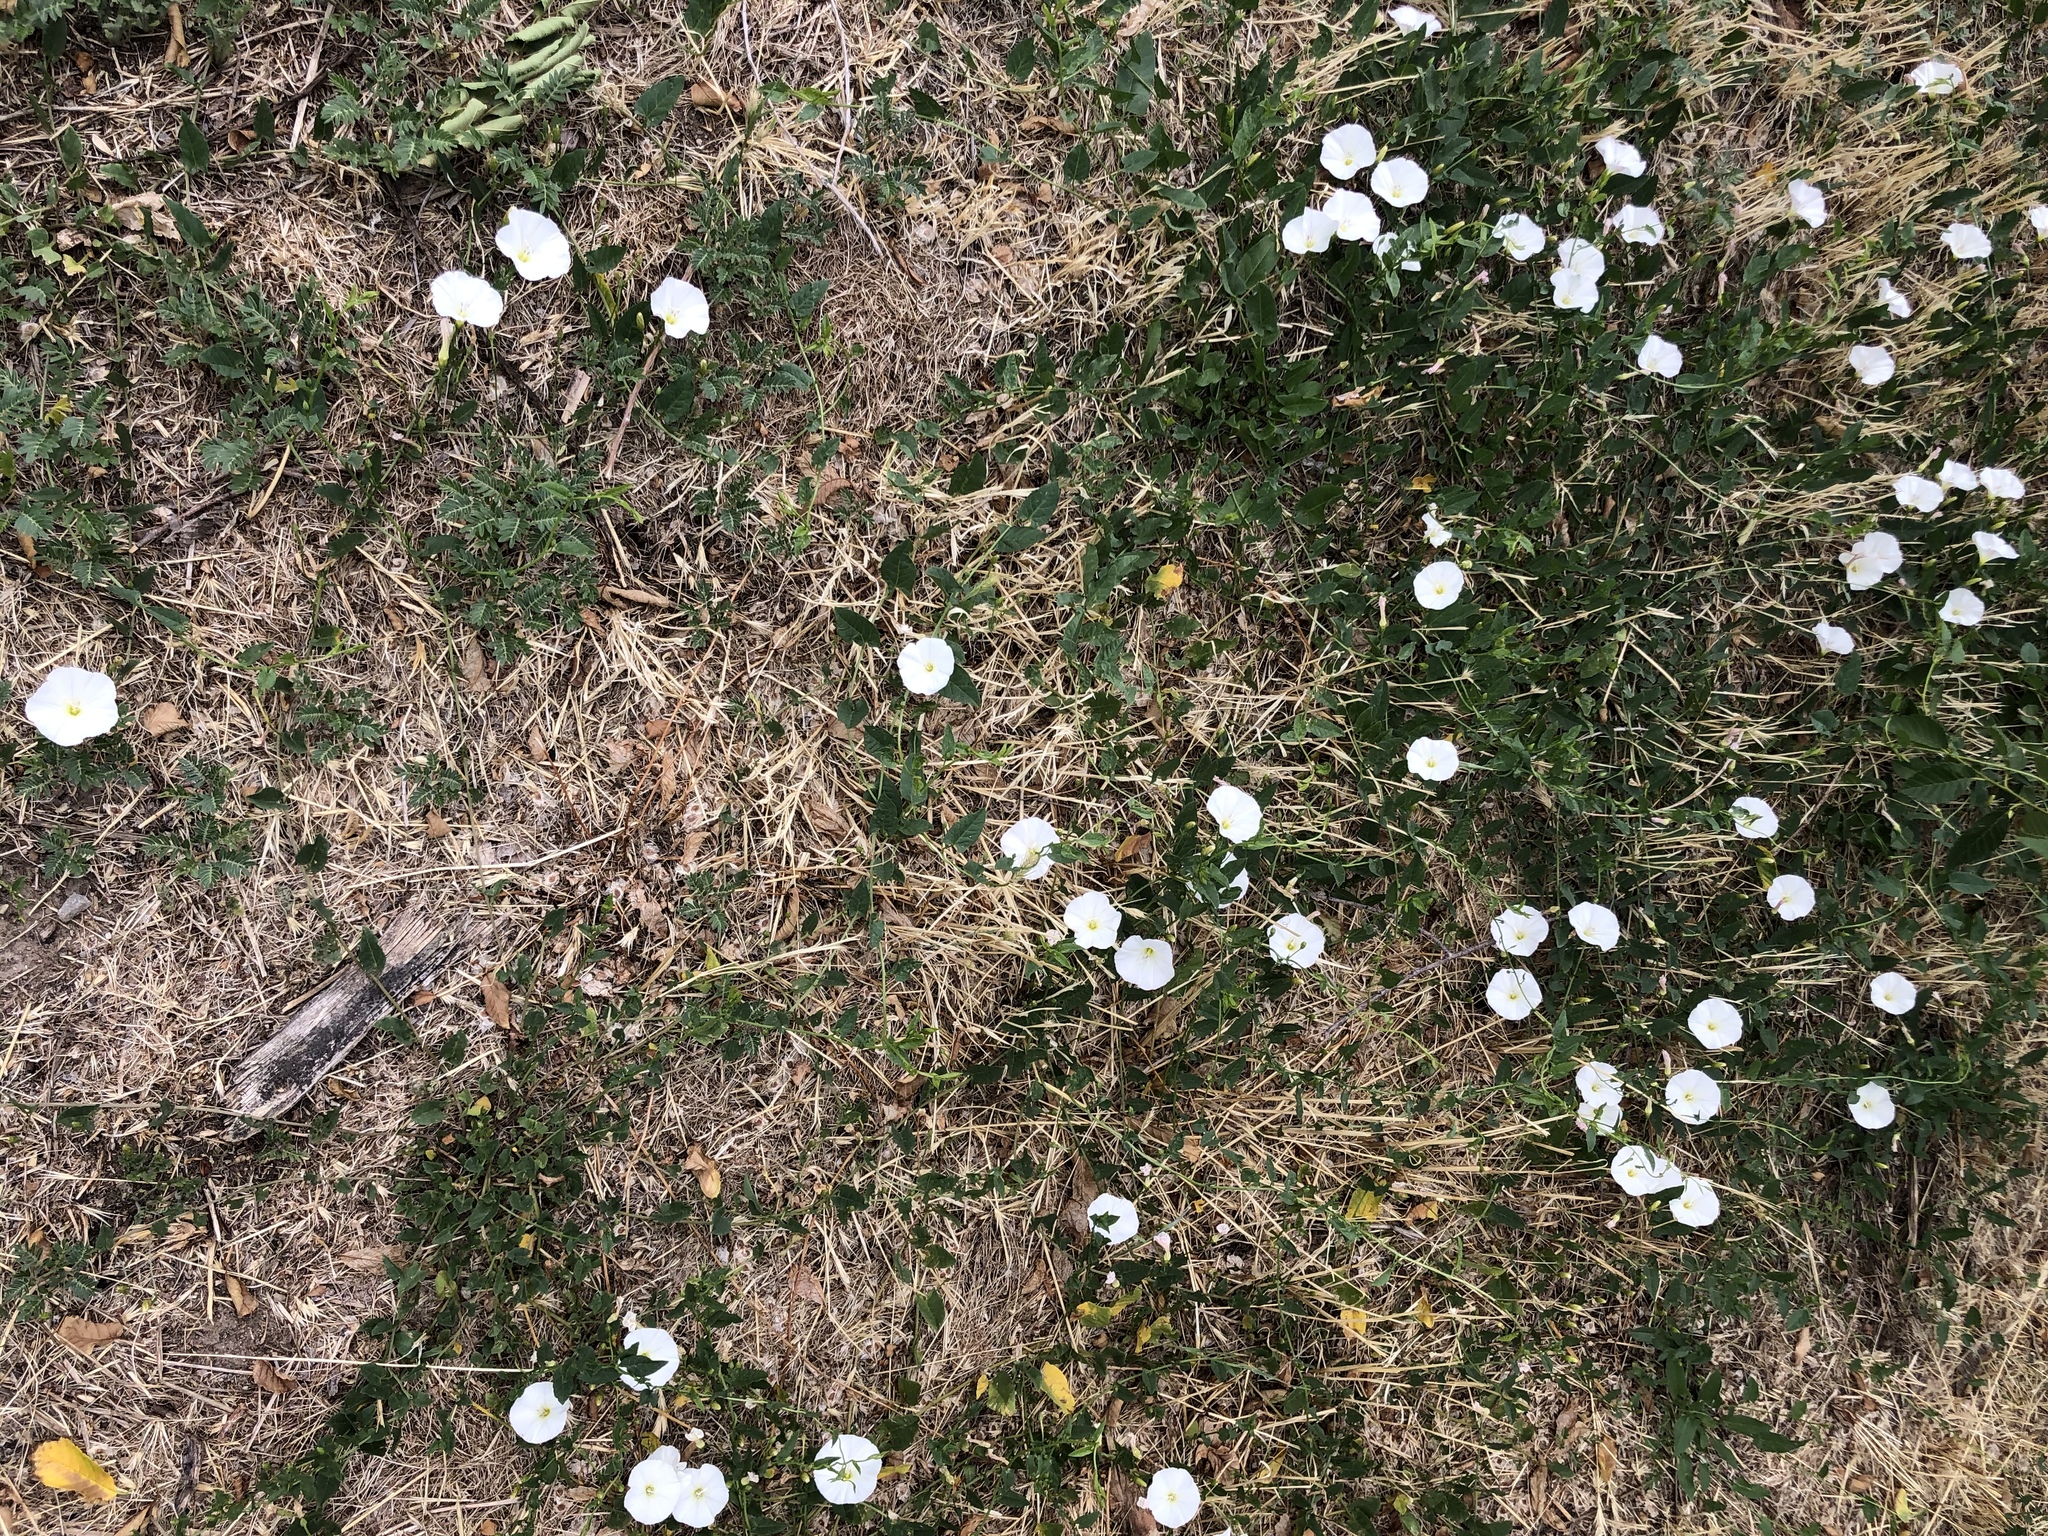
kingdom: Plantae
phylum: Tracheophyta
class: Magnoliopsida
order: Solanales
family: Convolvulaceae
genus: Convolvulus
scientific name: Convolvulus arvensis
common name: Field bindweed
